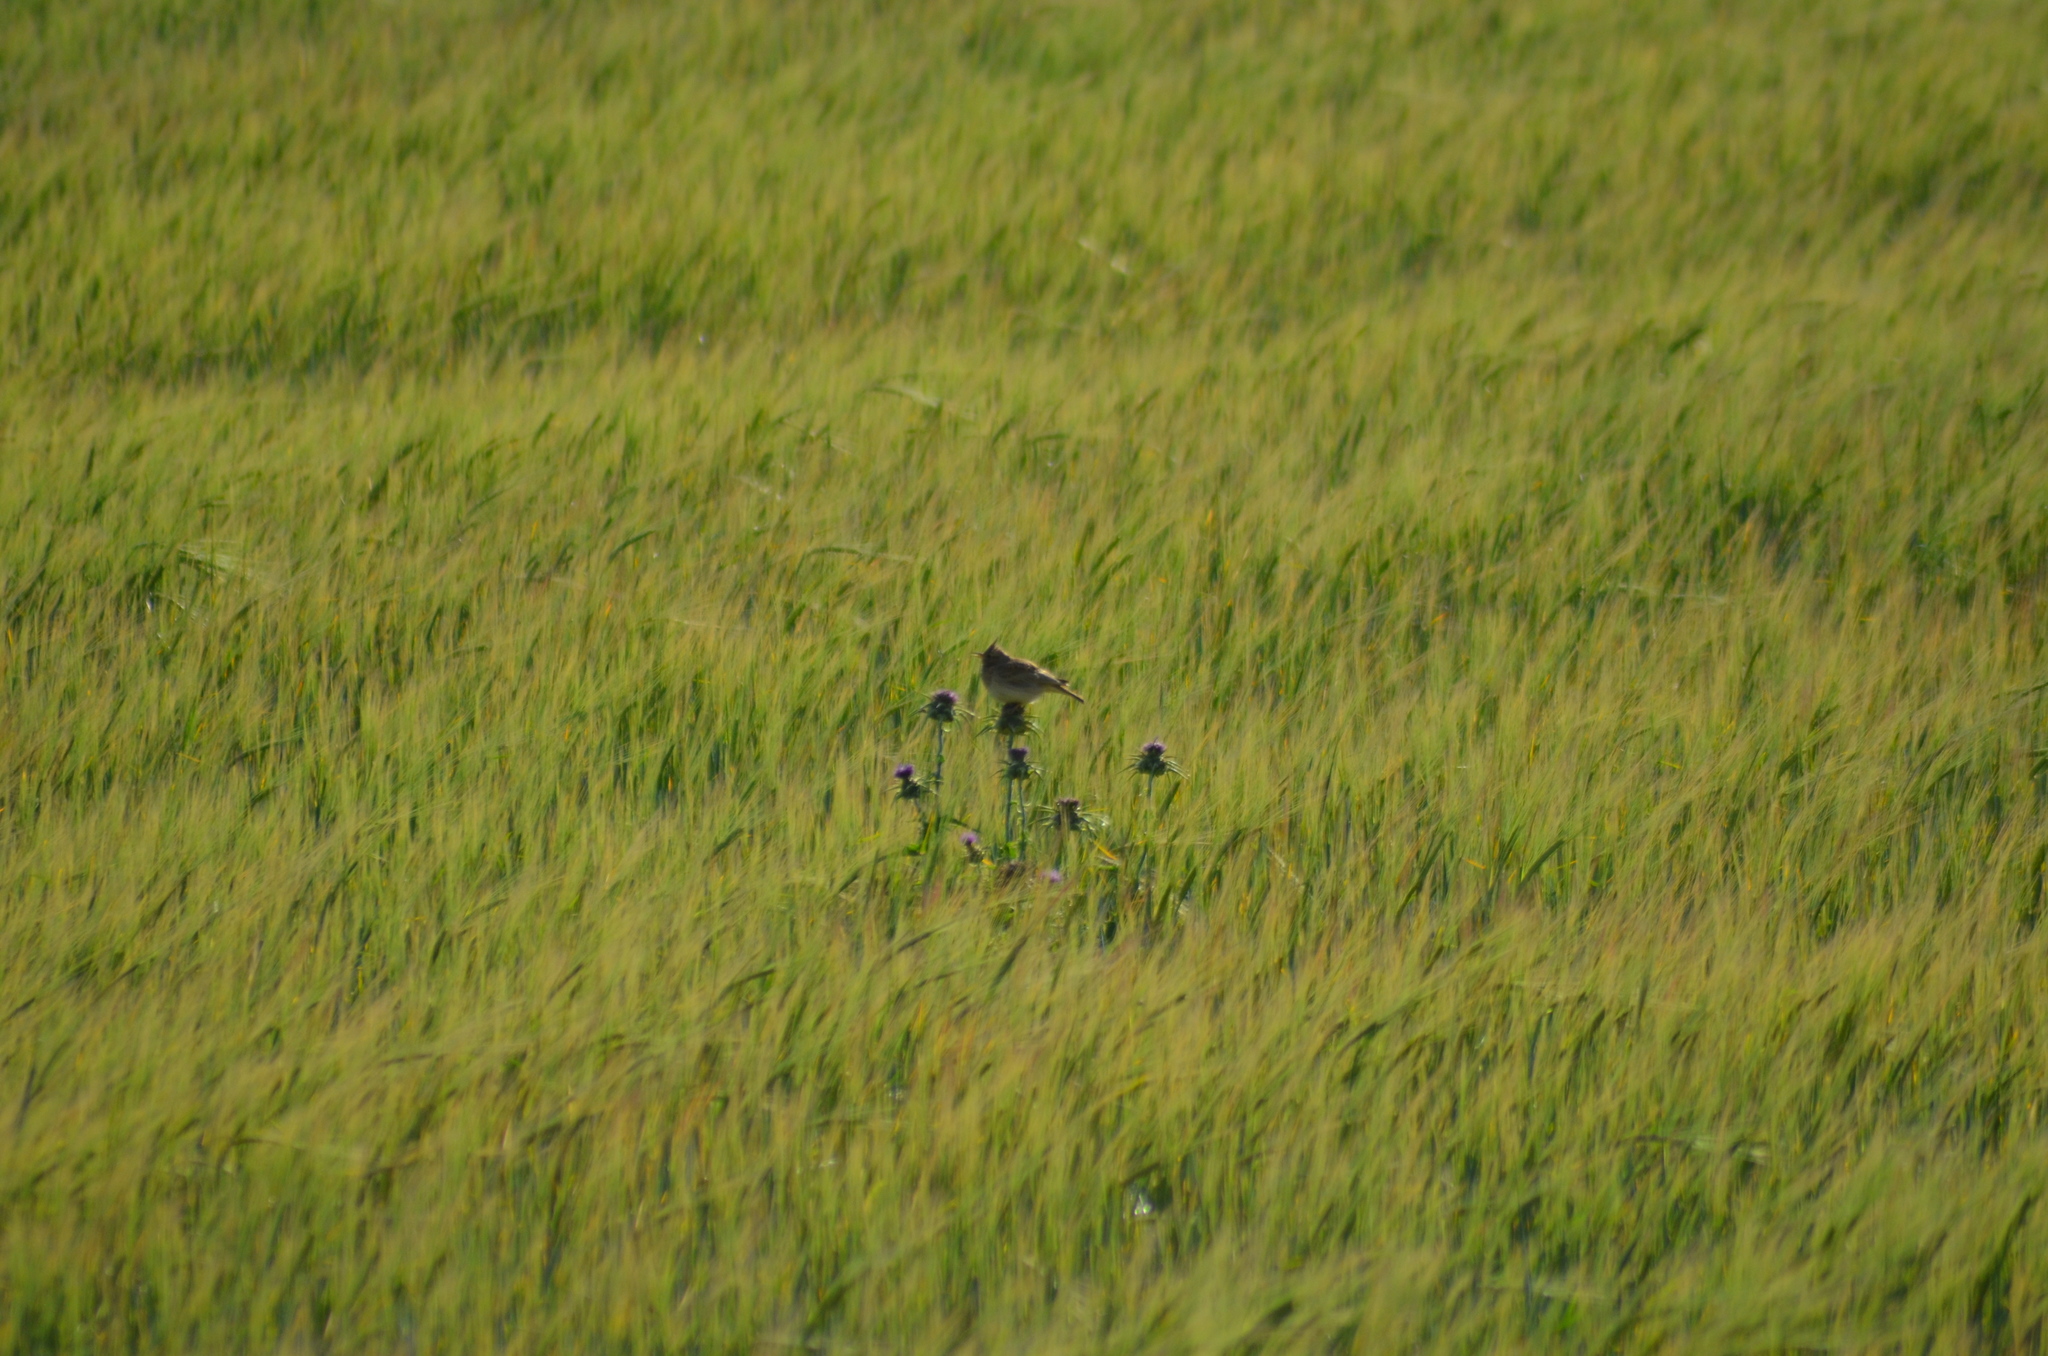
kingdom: Animalia
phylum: Chordata
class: Aves
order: Passeriformes
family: Alaudidae
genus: Galerida
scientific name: Galerida cristata
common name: Crested lark
